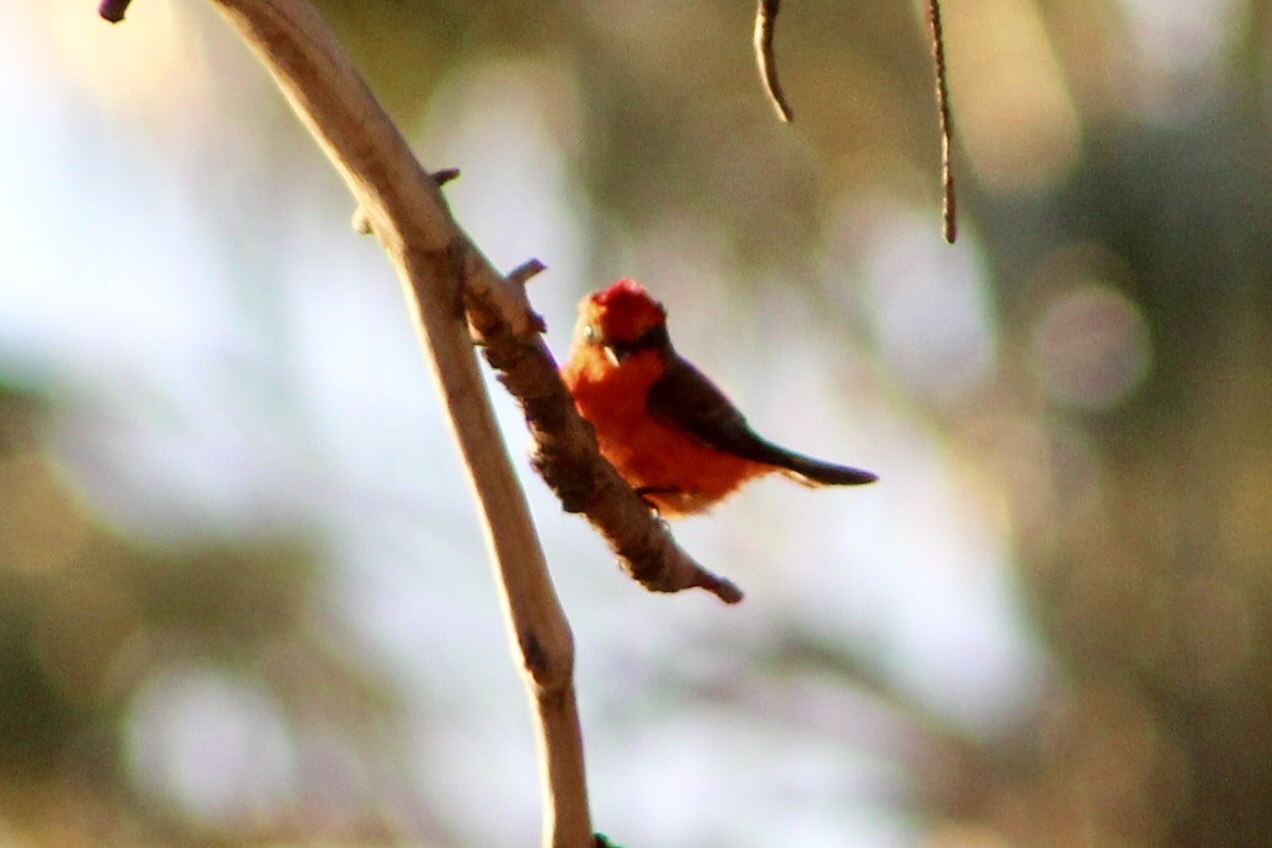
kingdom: Animalia
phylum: Chordata
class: Aves
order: Passeriformes
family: Tyrannidae
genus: Pyrocephalus
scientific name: Pyrocephalus rubinus
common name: Vermilion flycatcher
